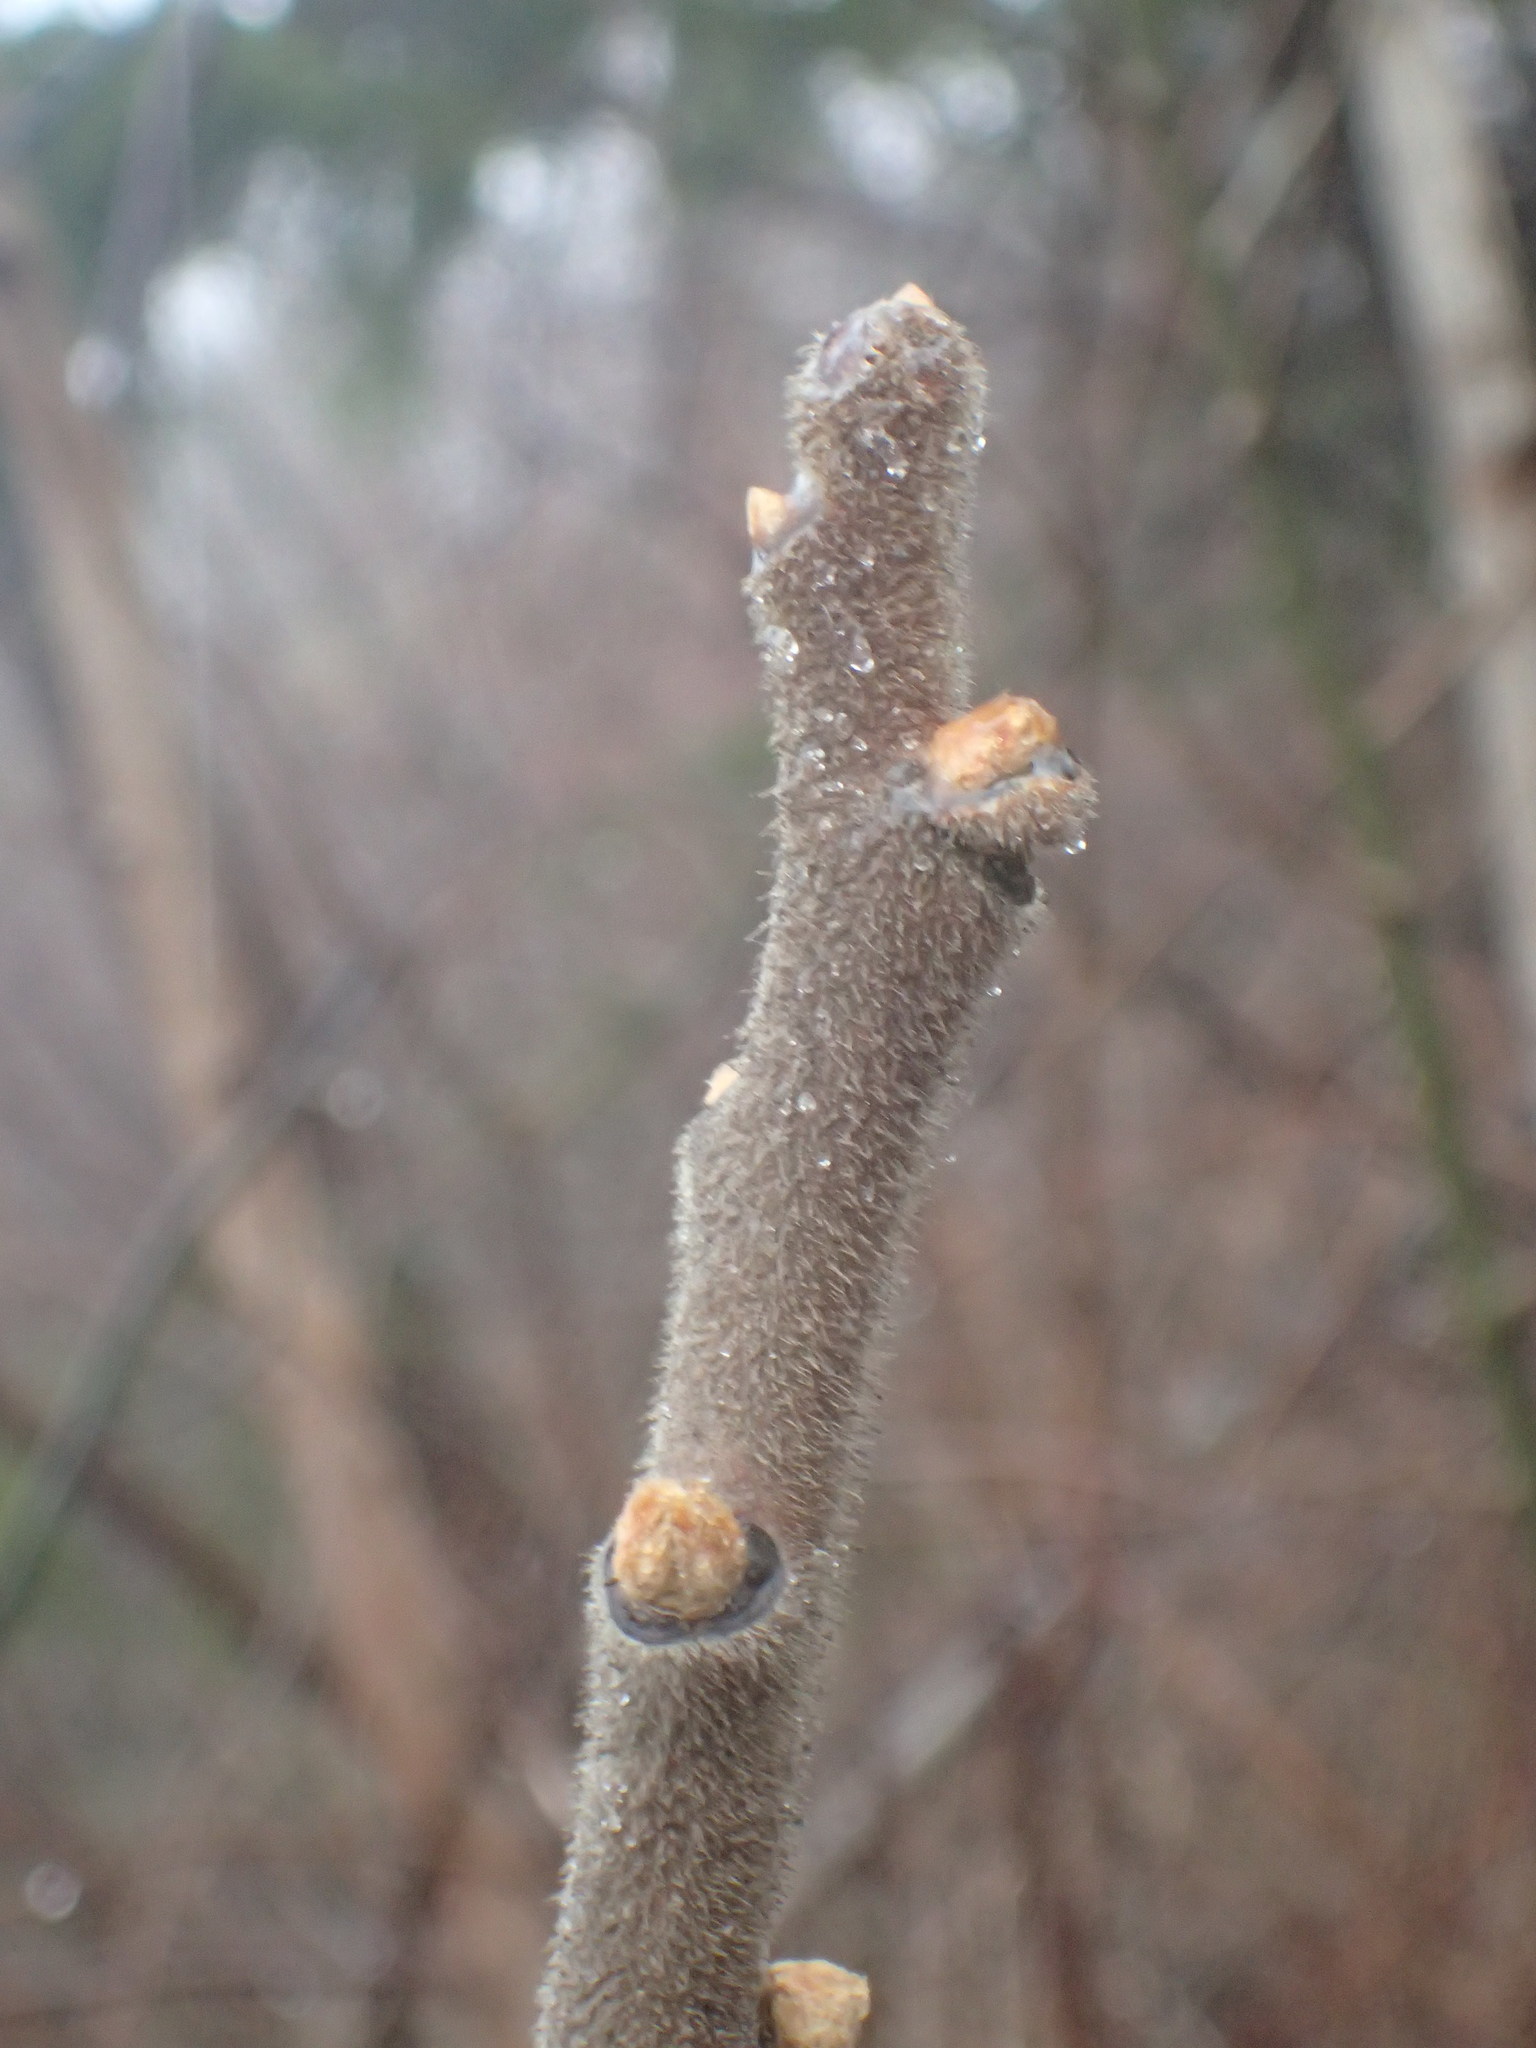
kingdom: Plantae
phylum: Tracheophyta
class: Magnoliopsida
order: Sapindales
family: Anacardiaceae
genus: Rhus
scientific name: Rhus typhina
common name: Staghorn sumac
